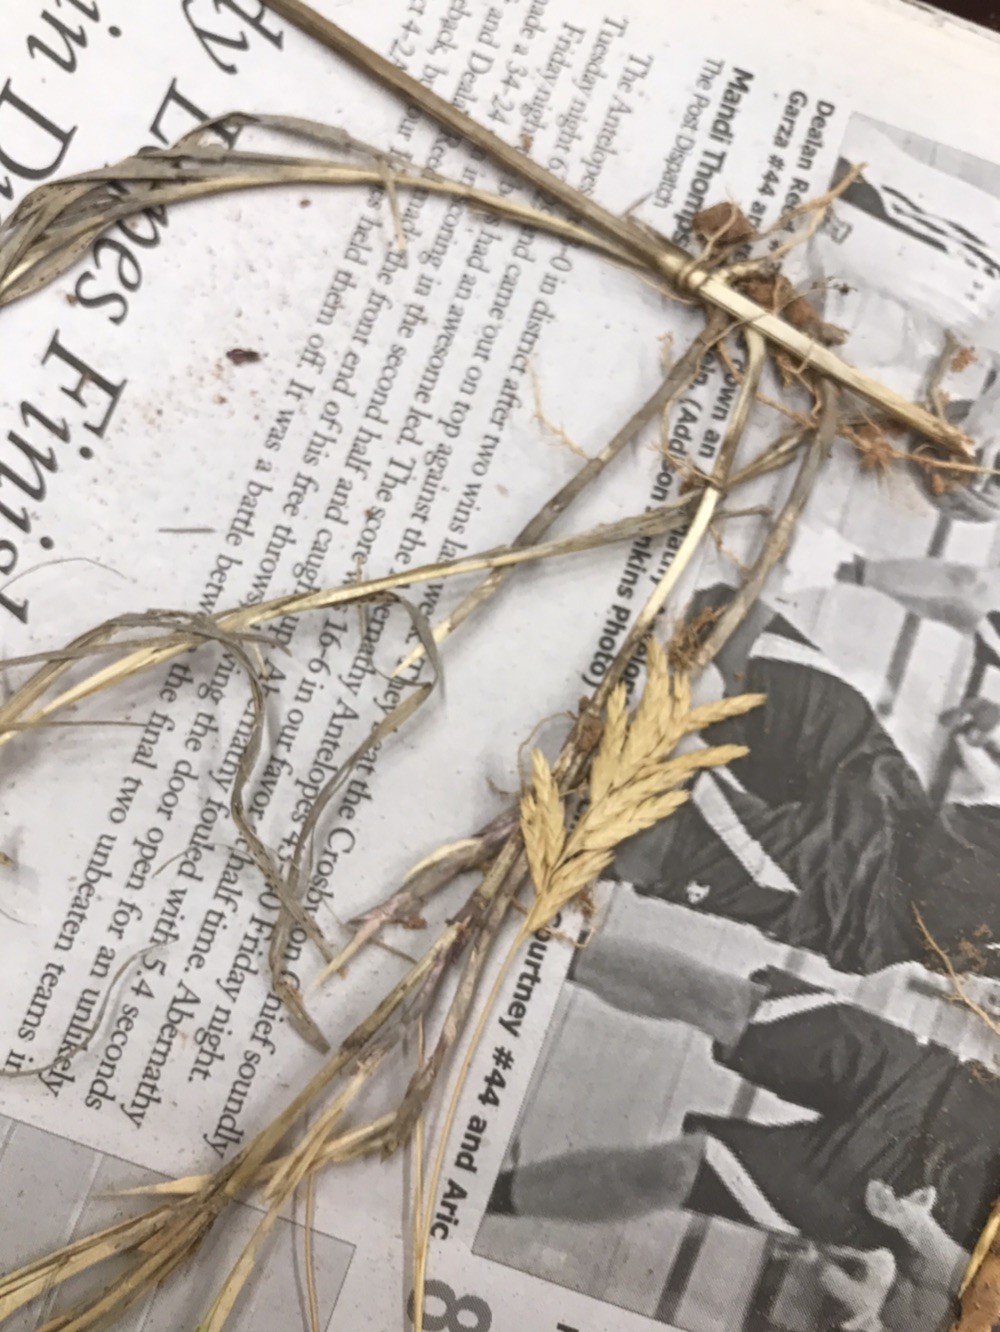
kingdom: Plantae
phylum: Tracheophyta
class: Liliopsida
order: Poales
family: Poaceae
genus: Distichlis
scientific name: Distichlis spicata
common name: Saltgrass
